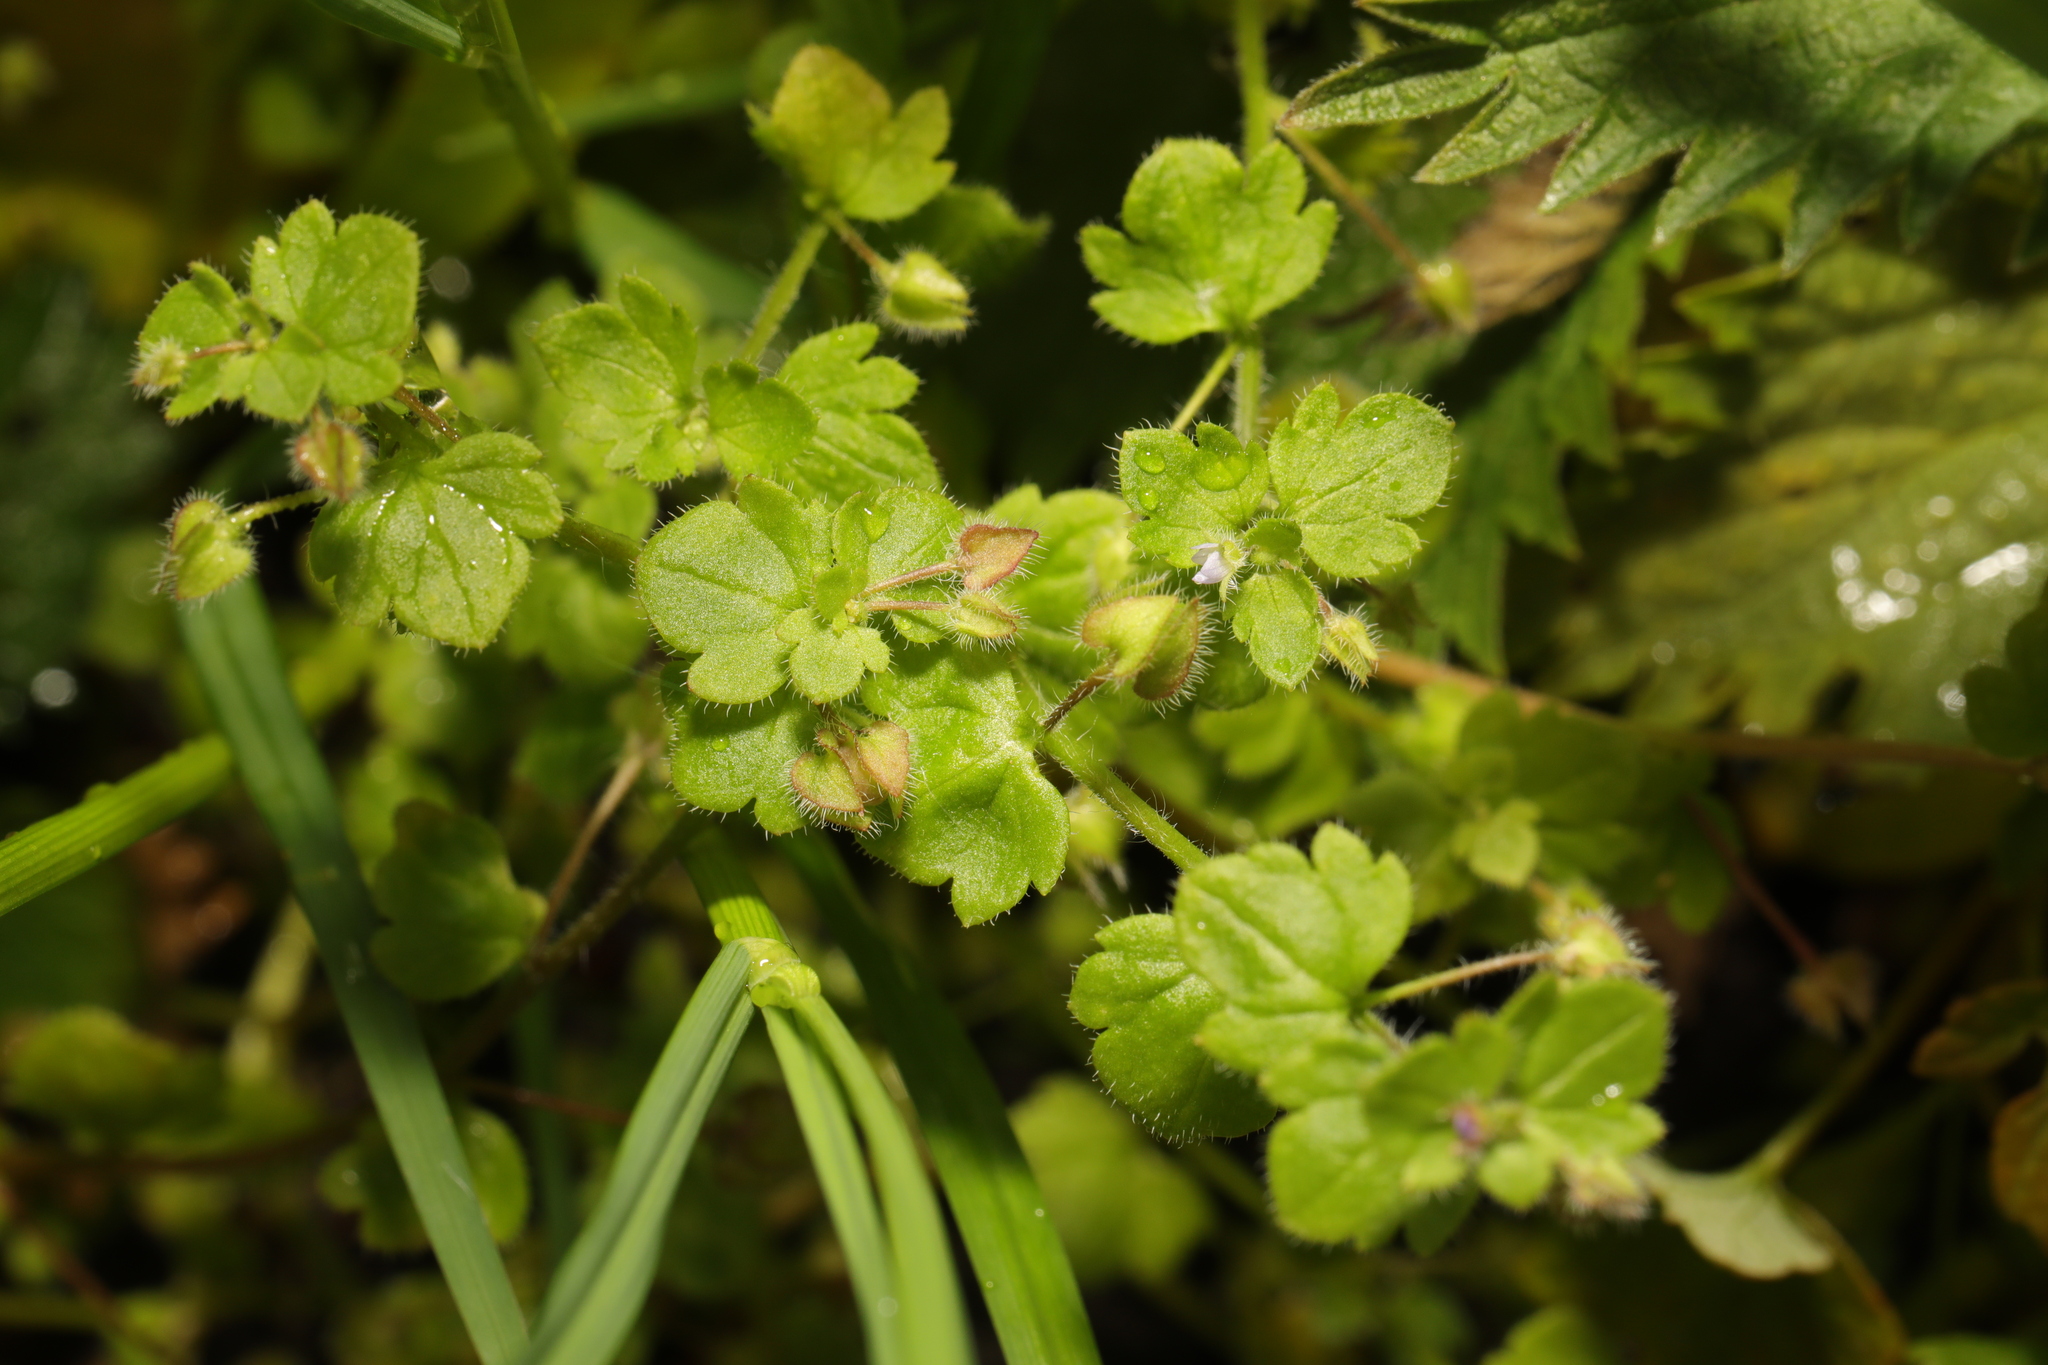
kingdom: Plantae
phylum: Tracheophyta
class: Magnoliopsida
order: Lamiales
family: Plantaginaceae
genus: Veronica
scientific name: Veronica sublobata
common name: False ivy-leaved speedwell
